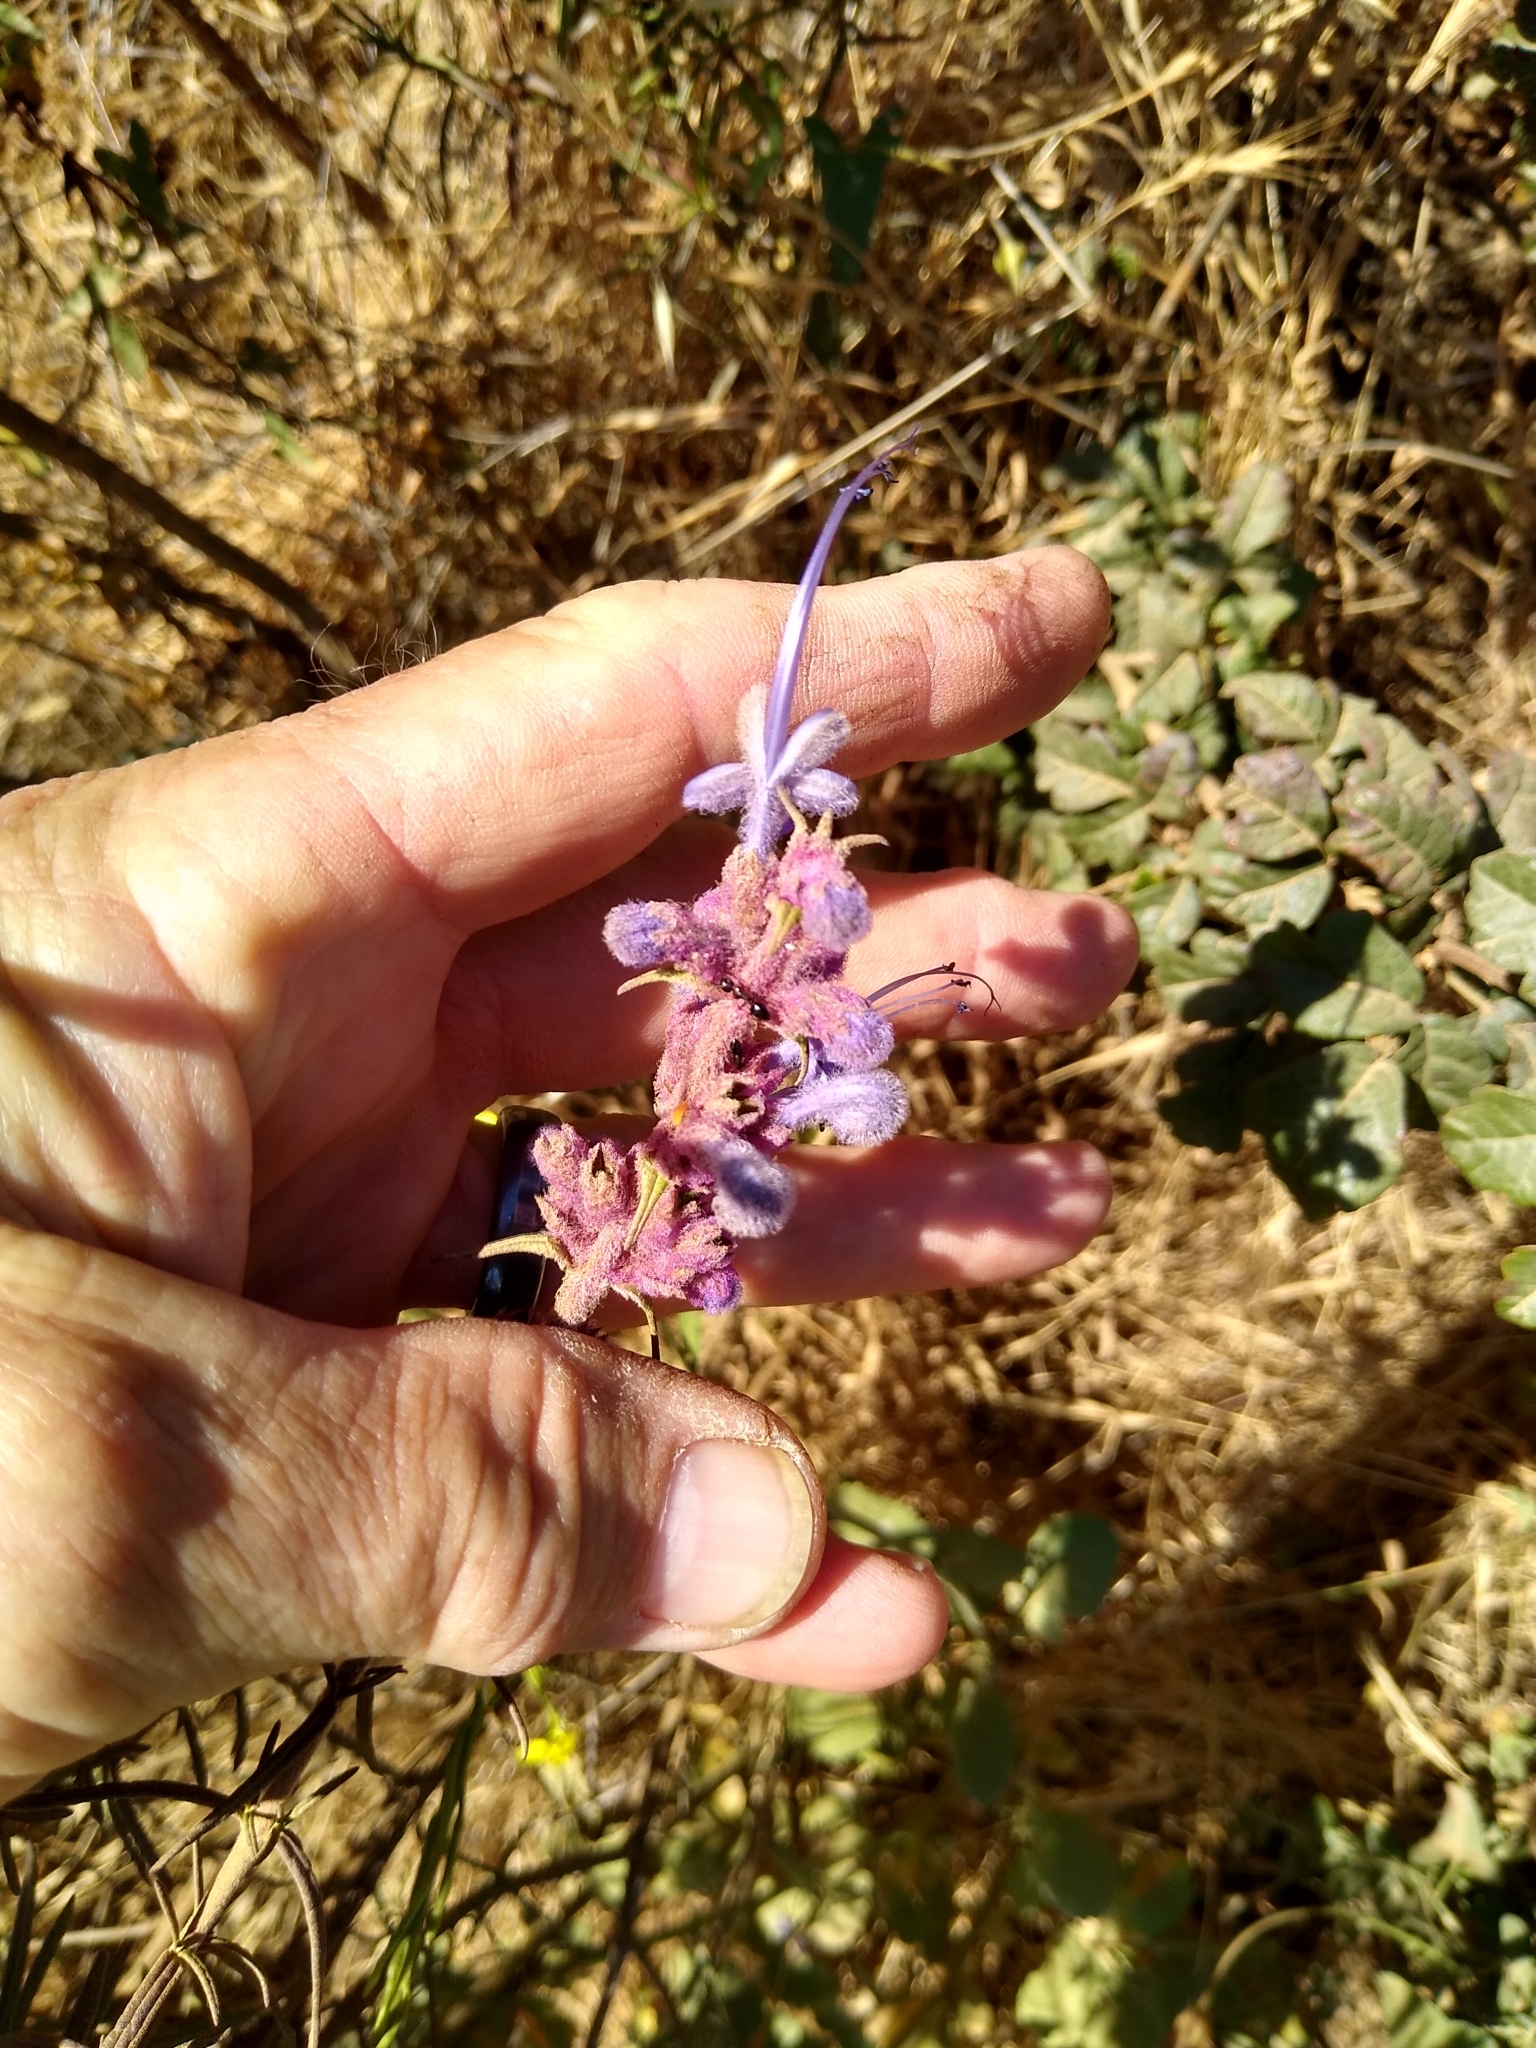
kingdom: Plantae
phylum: Tracheophyta
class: Magnoliopsida
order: Lamiales
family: Lamiaceae
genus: Trichostema
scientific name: Trichostema lanatum
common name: Woolly bluecurls
